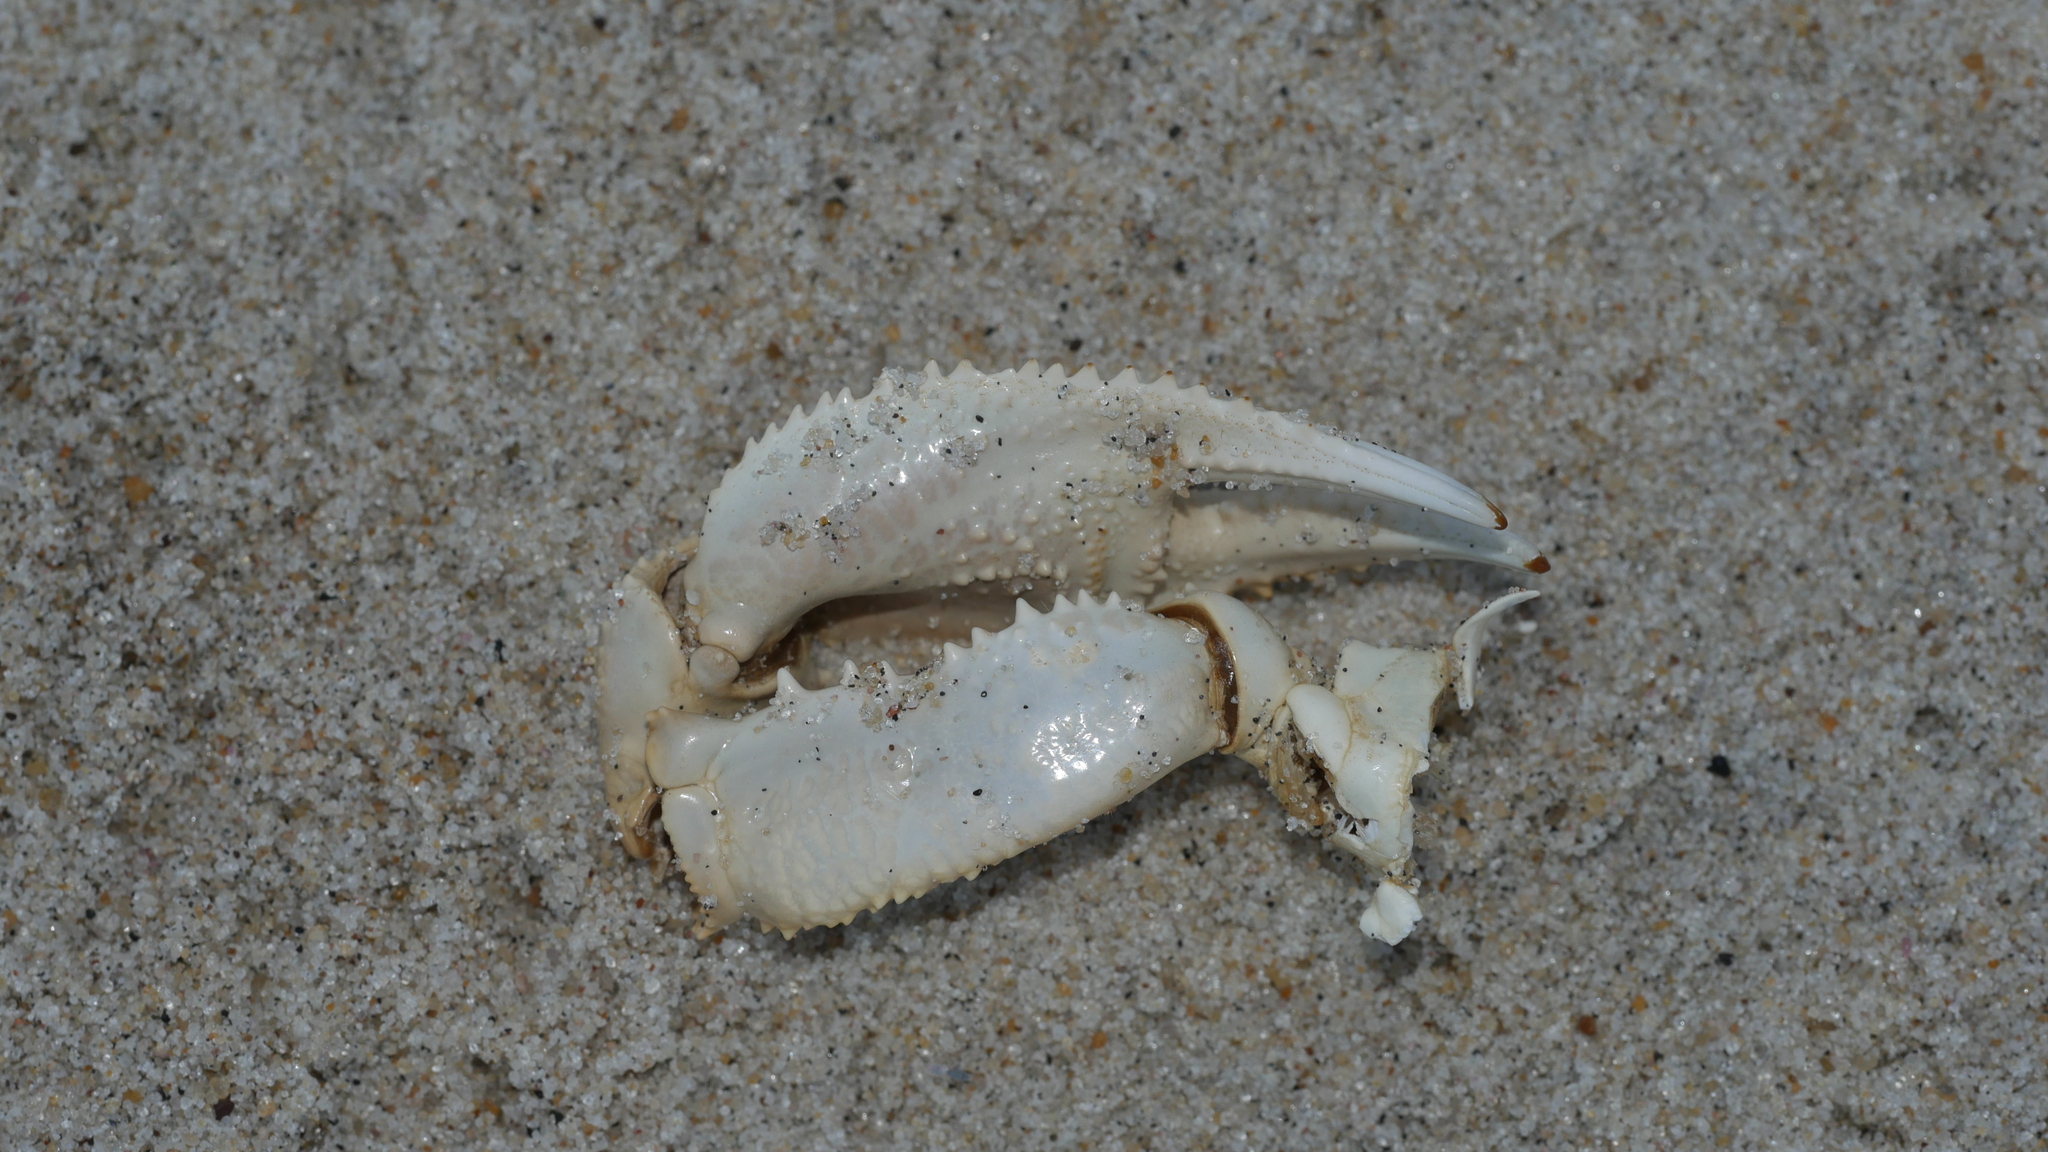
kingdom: Animalia
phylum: Arthropoda
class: Malacostraca
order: Decapoda
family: Ocypodidae
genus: Ocypode
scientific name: Ocypode quadrata
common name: Ghost crab
